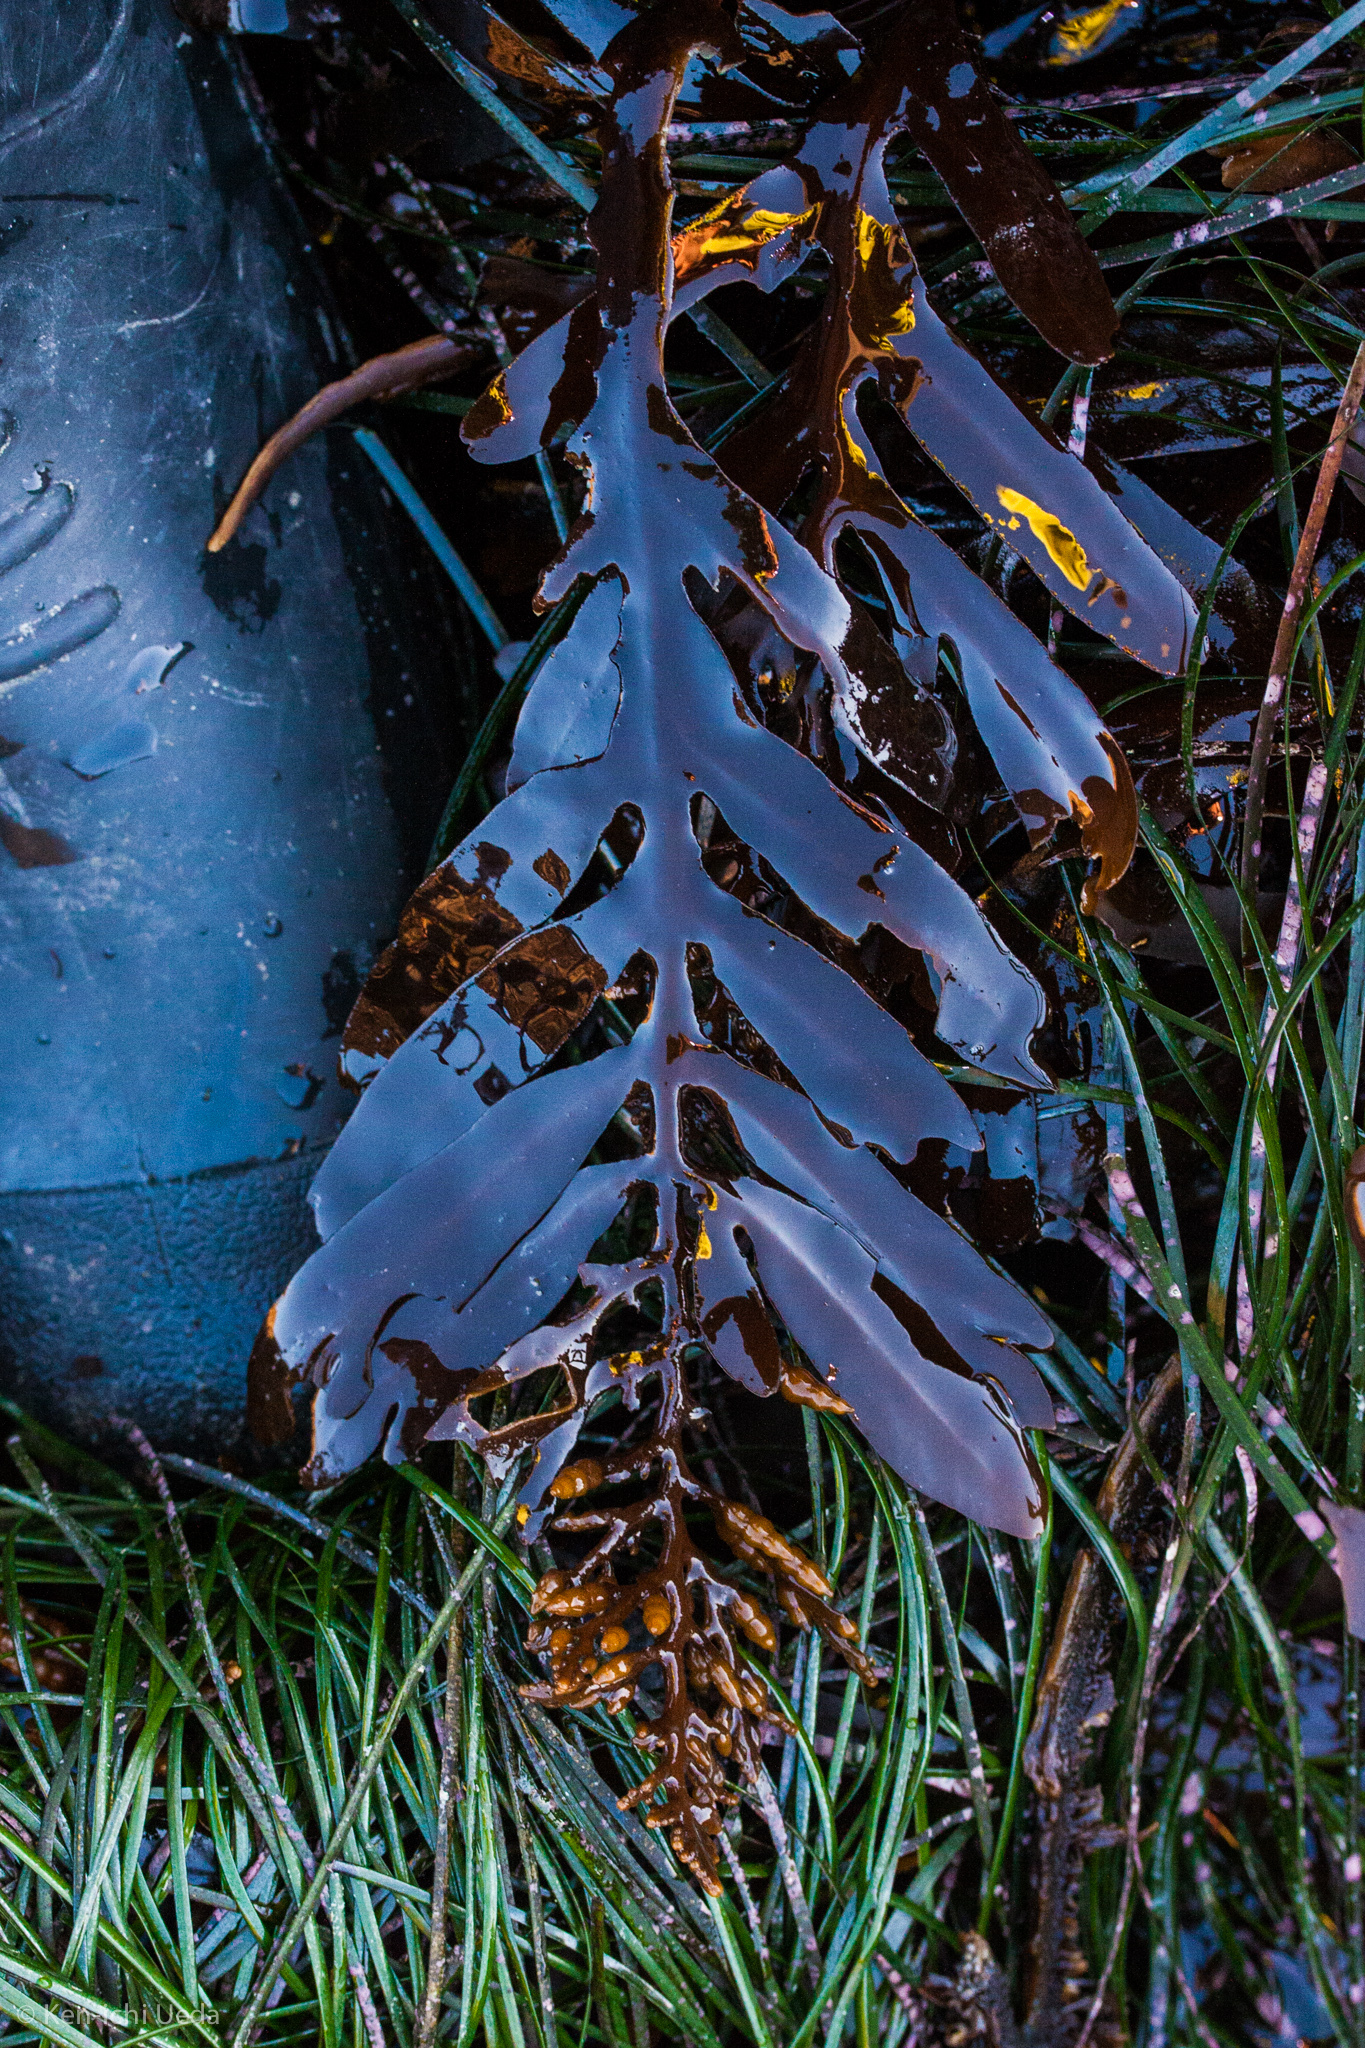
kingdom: Chromista
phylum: Ochrophyta
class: Phaeophyceae
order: Fucales
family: Sargassaceae
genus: Stephanocystis
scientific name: Stephanocystis
